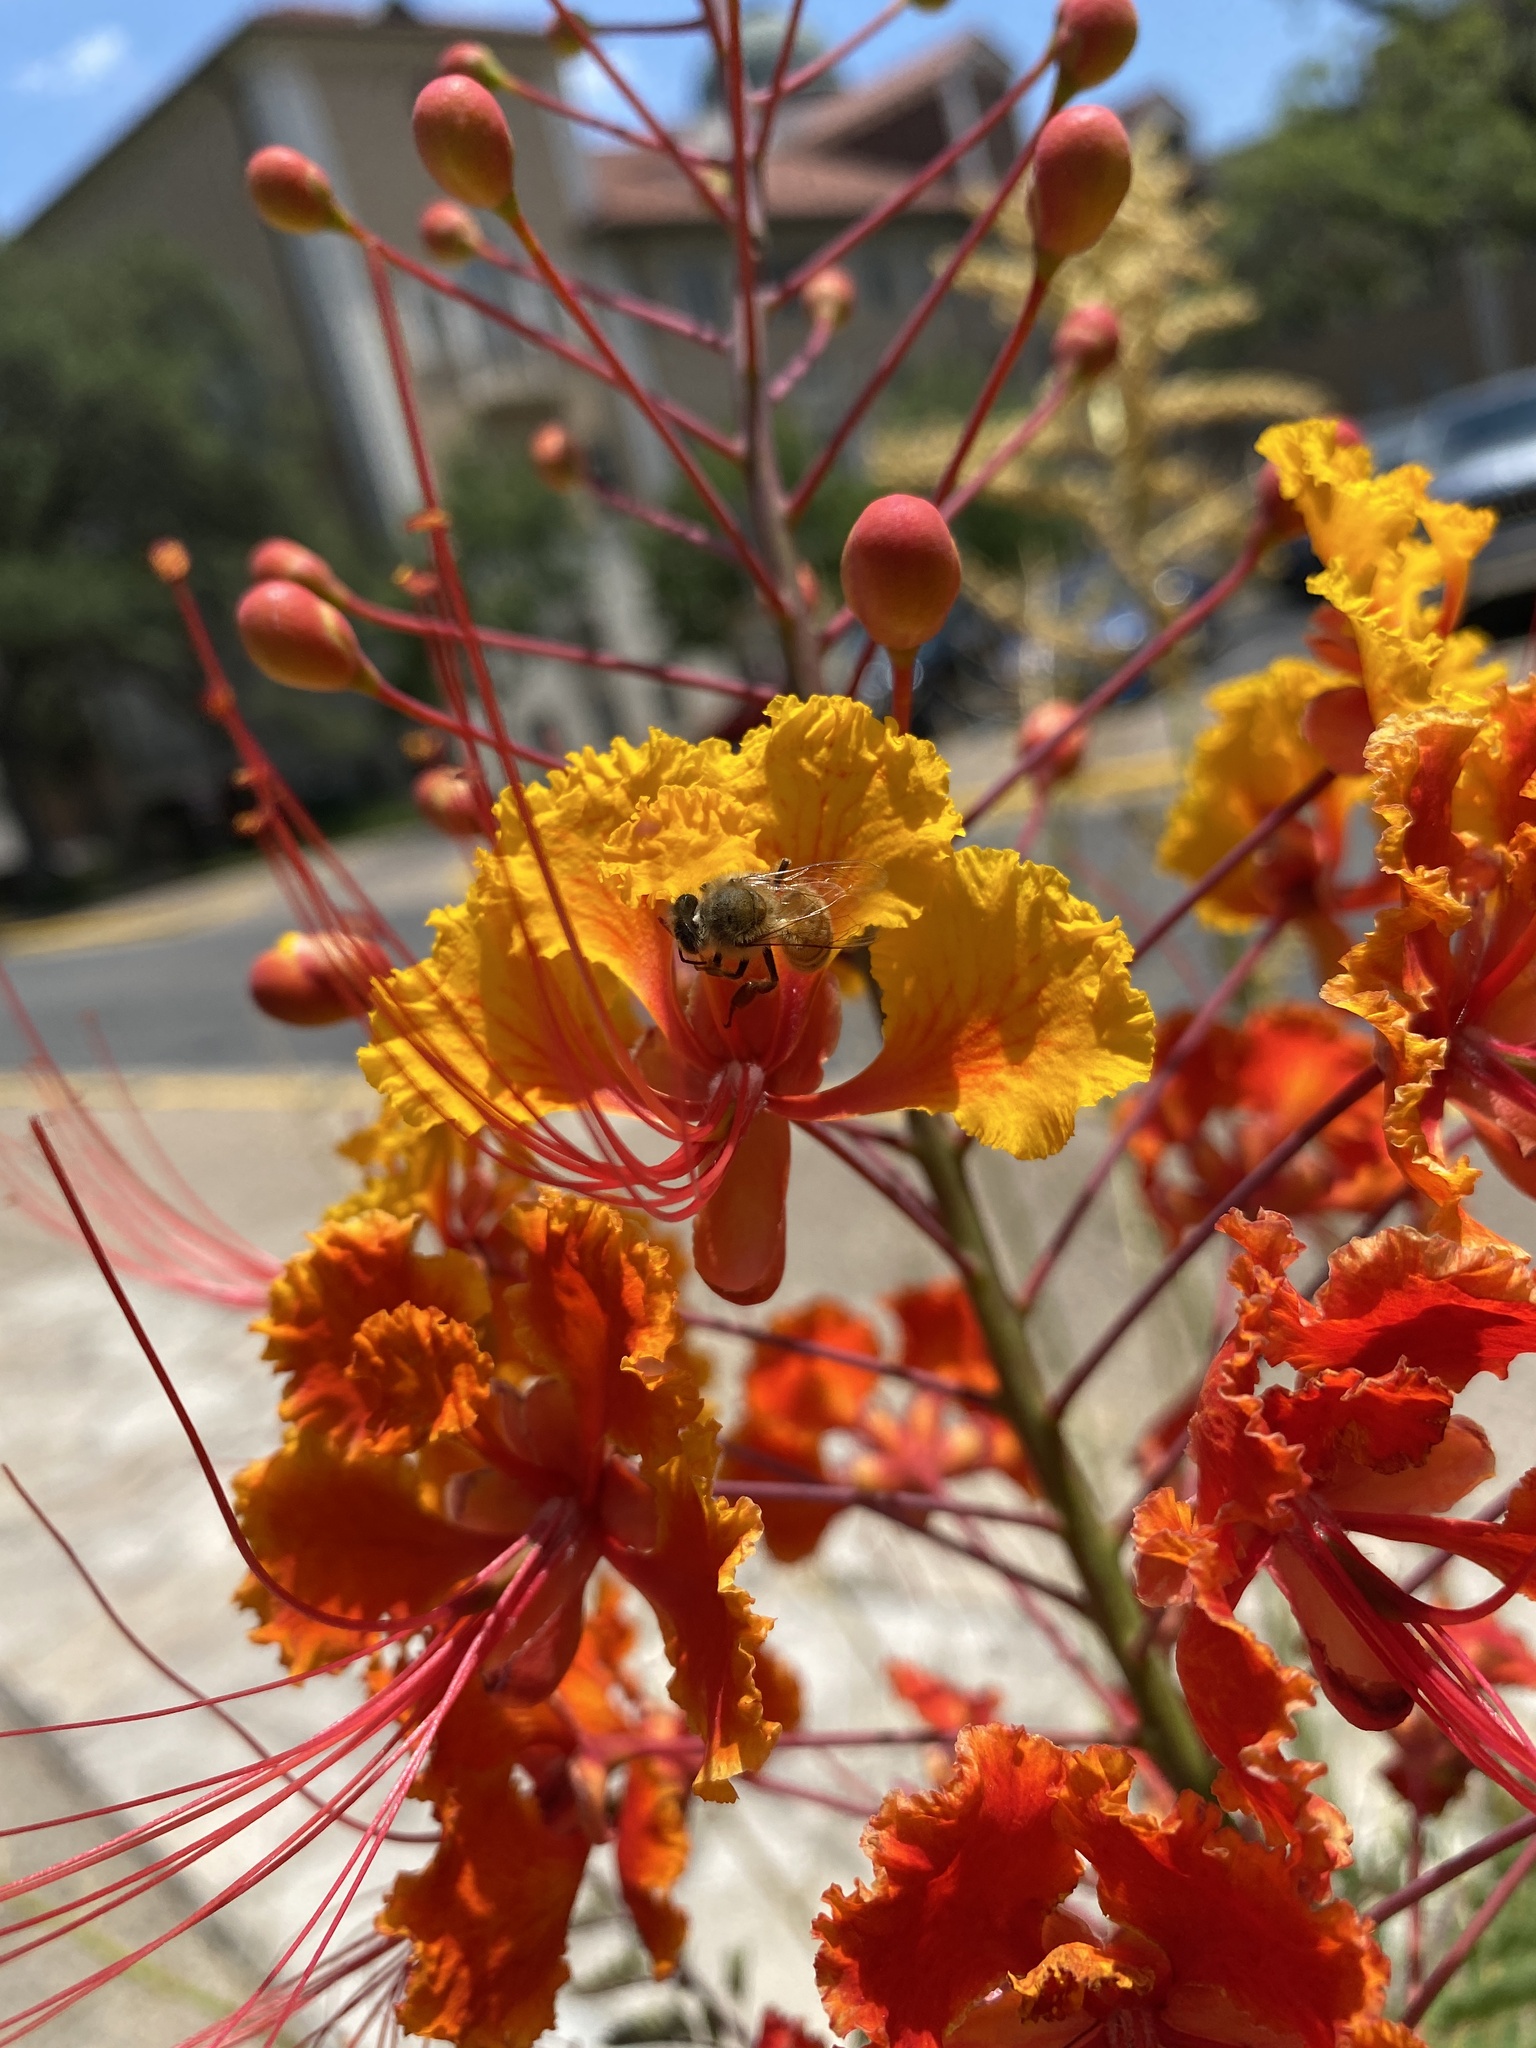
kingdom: Animalia
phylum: Arthropoda
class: Insecta
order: Hymenoptera
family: Apidae
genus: Apis
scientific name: Apis mellifera
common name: Honey bee
